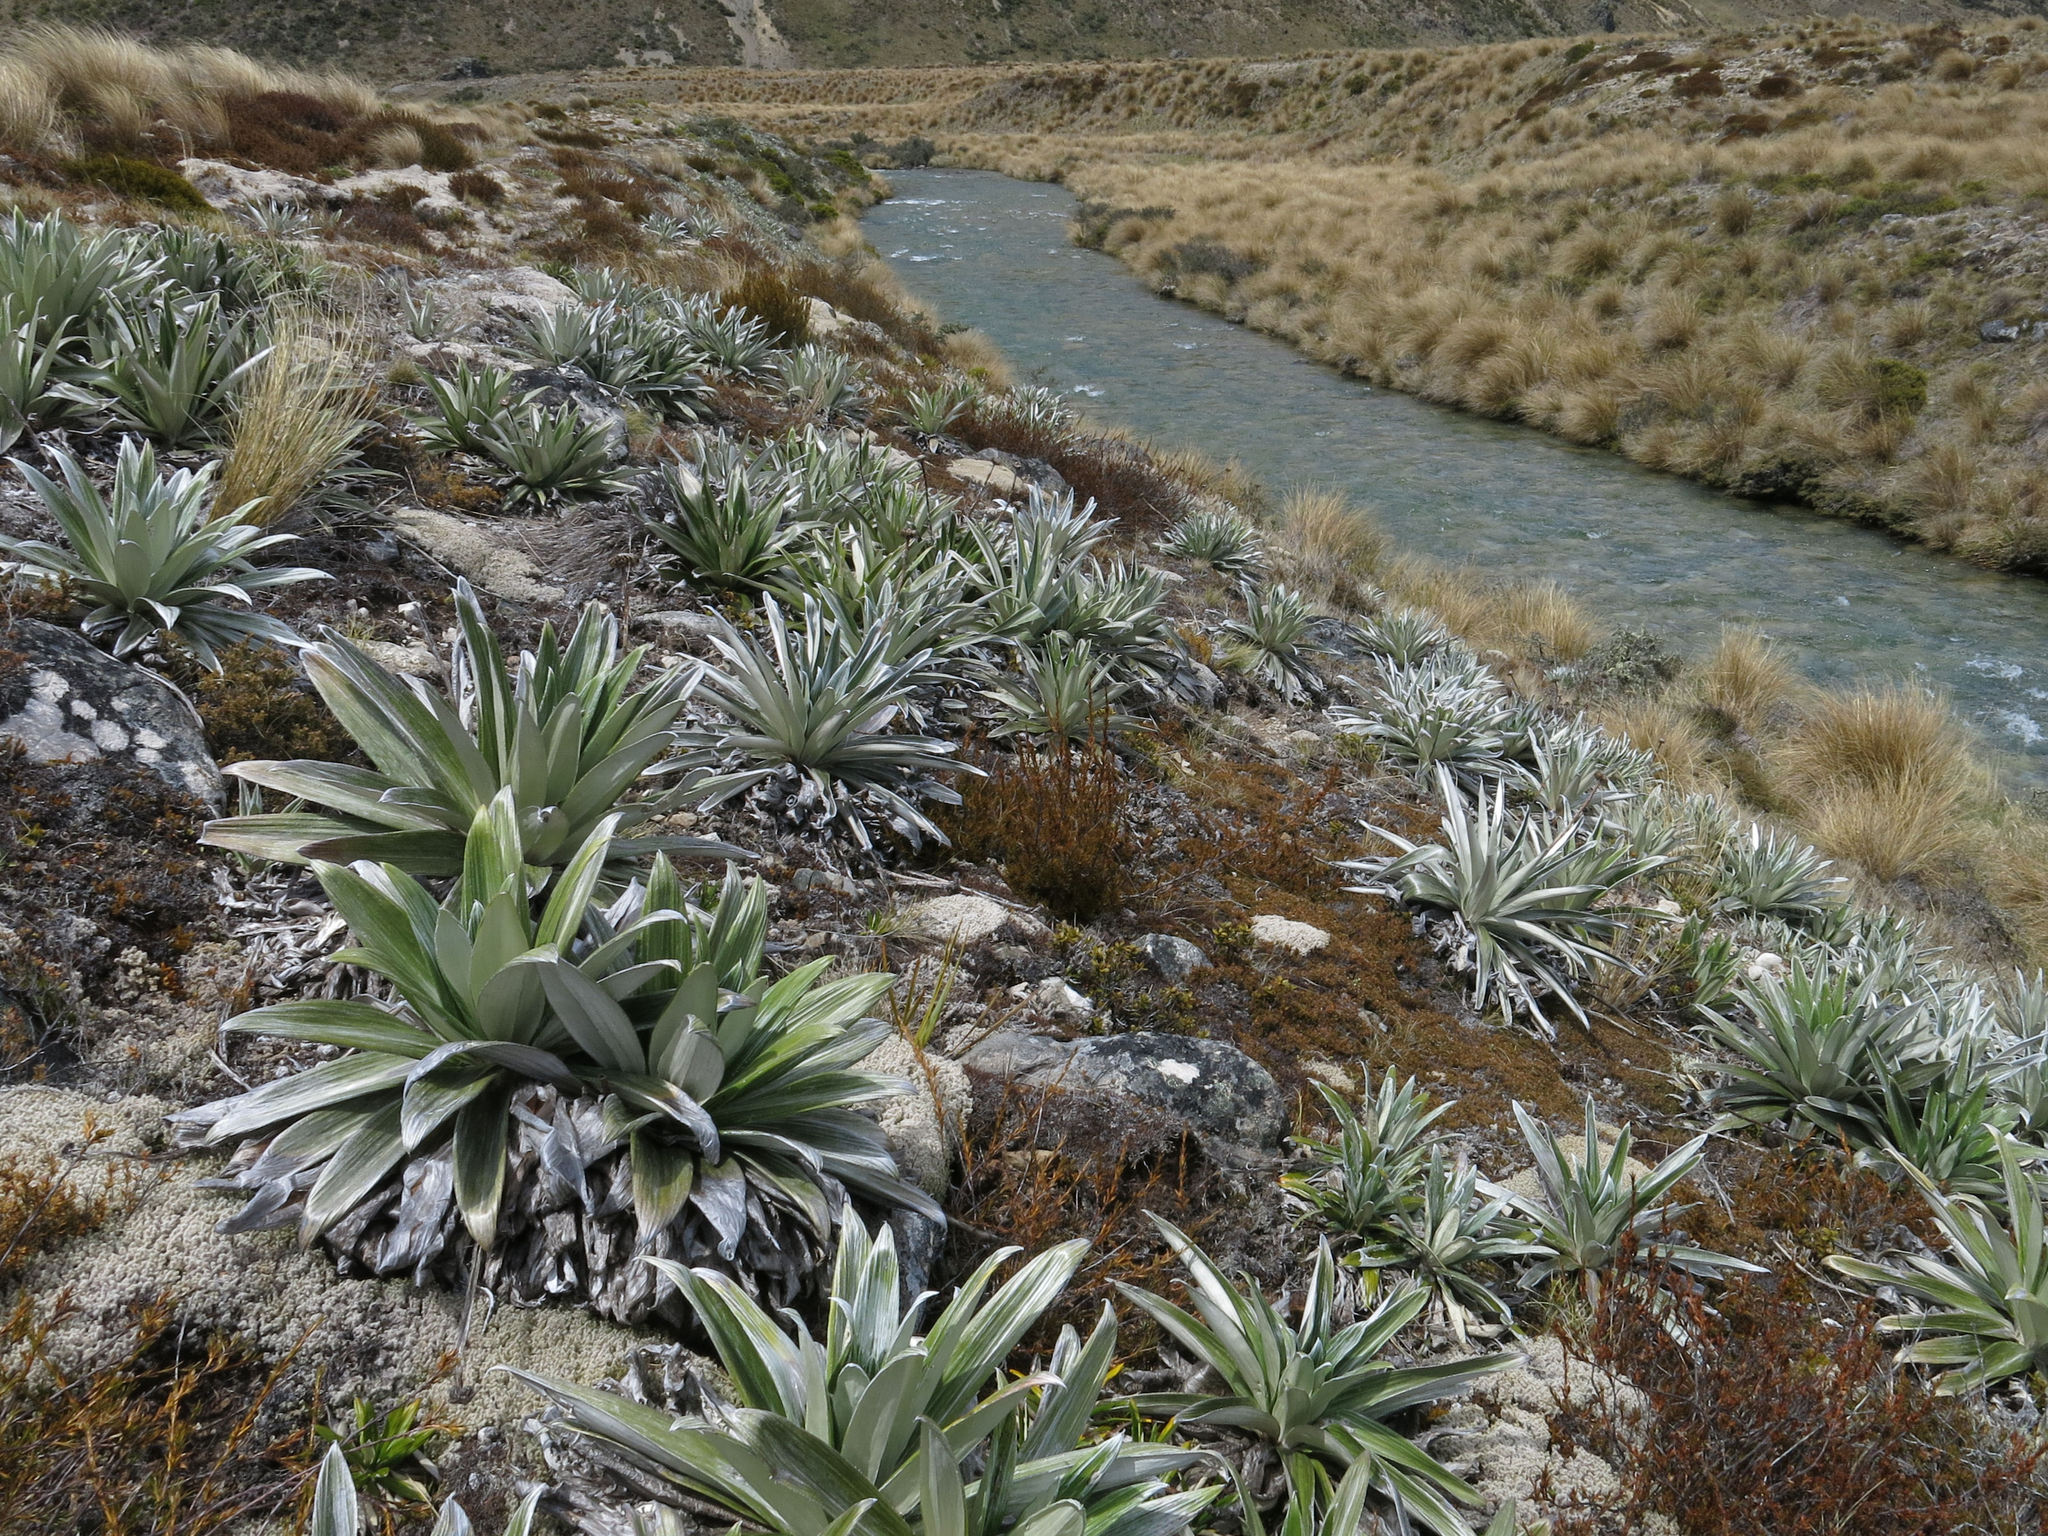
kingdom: Plantae
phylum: Tracheophyta
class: Magnoliopsida
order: Asterales
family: Asteraceae
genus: Celmisia
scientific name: Celmisia semicordata
